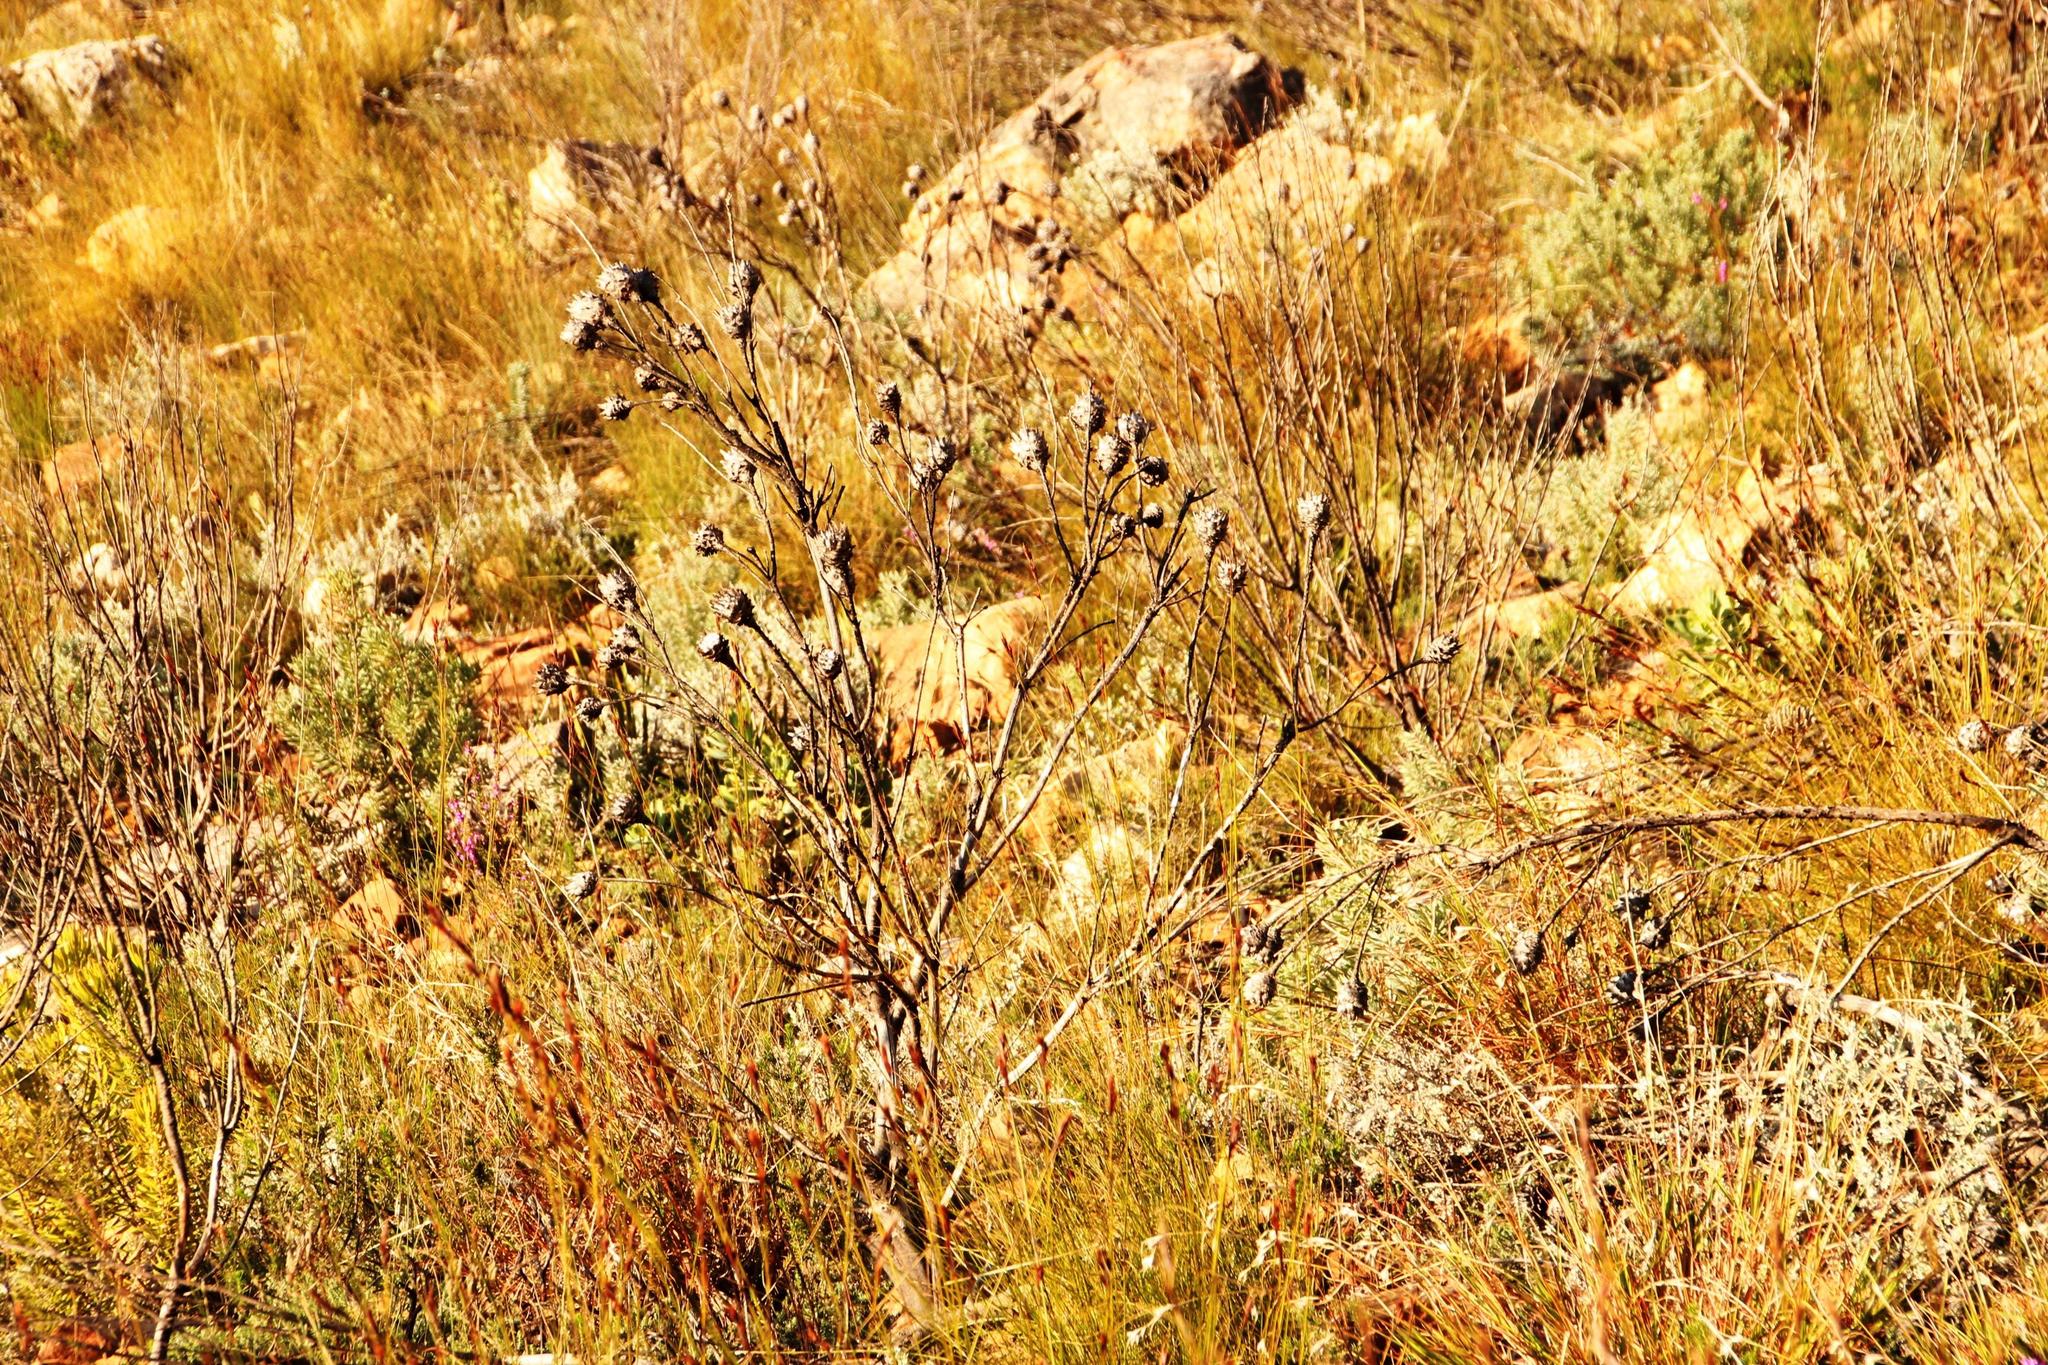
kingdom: Plantae
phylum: Tracheophyta
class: Magnoliopsida
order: Proteales
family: Proteaceae
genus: Leucadendron
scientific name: Leucadendron rubrum
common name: Spinning top
